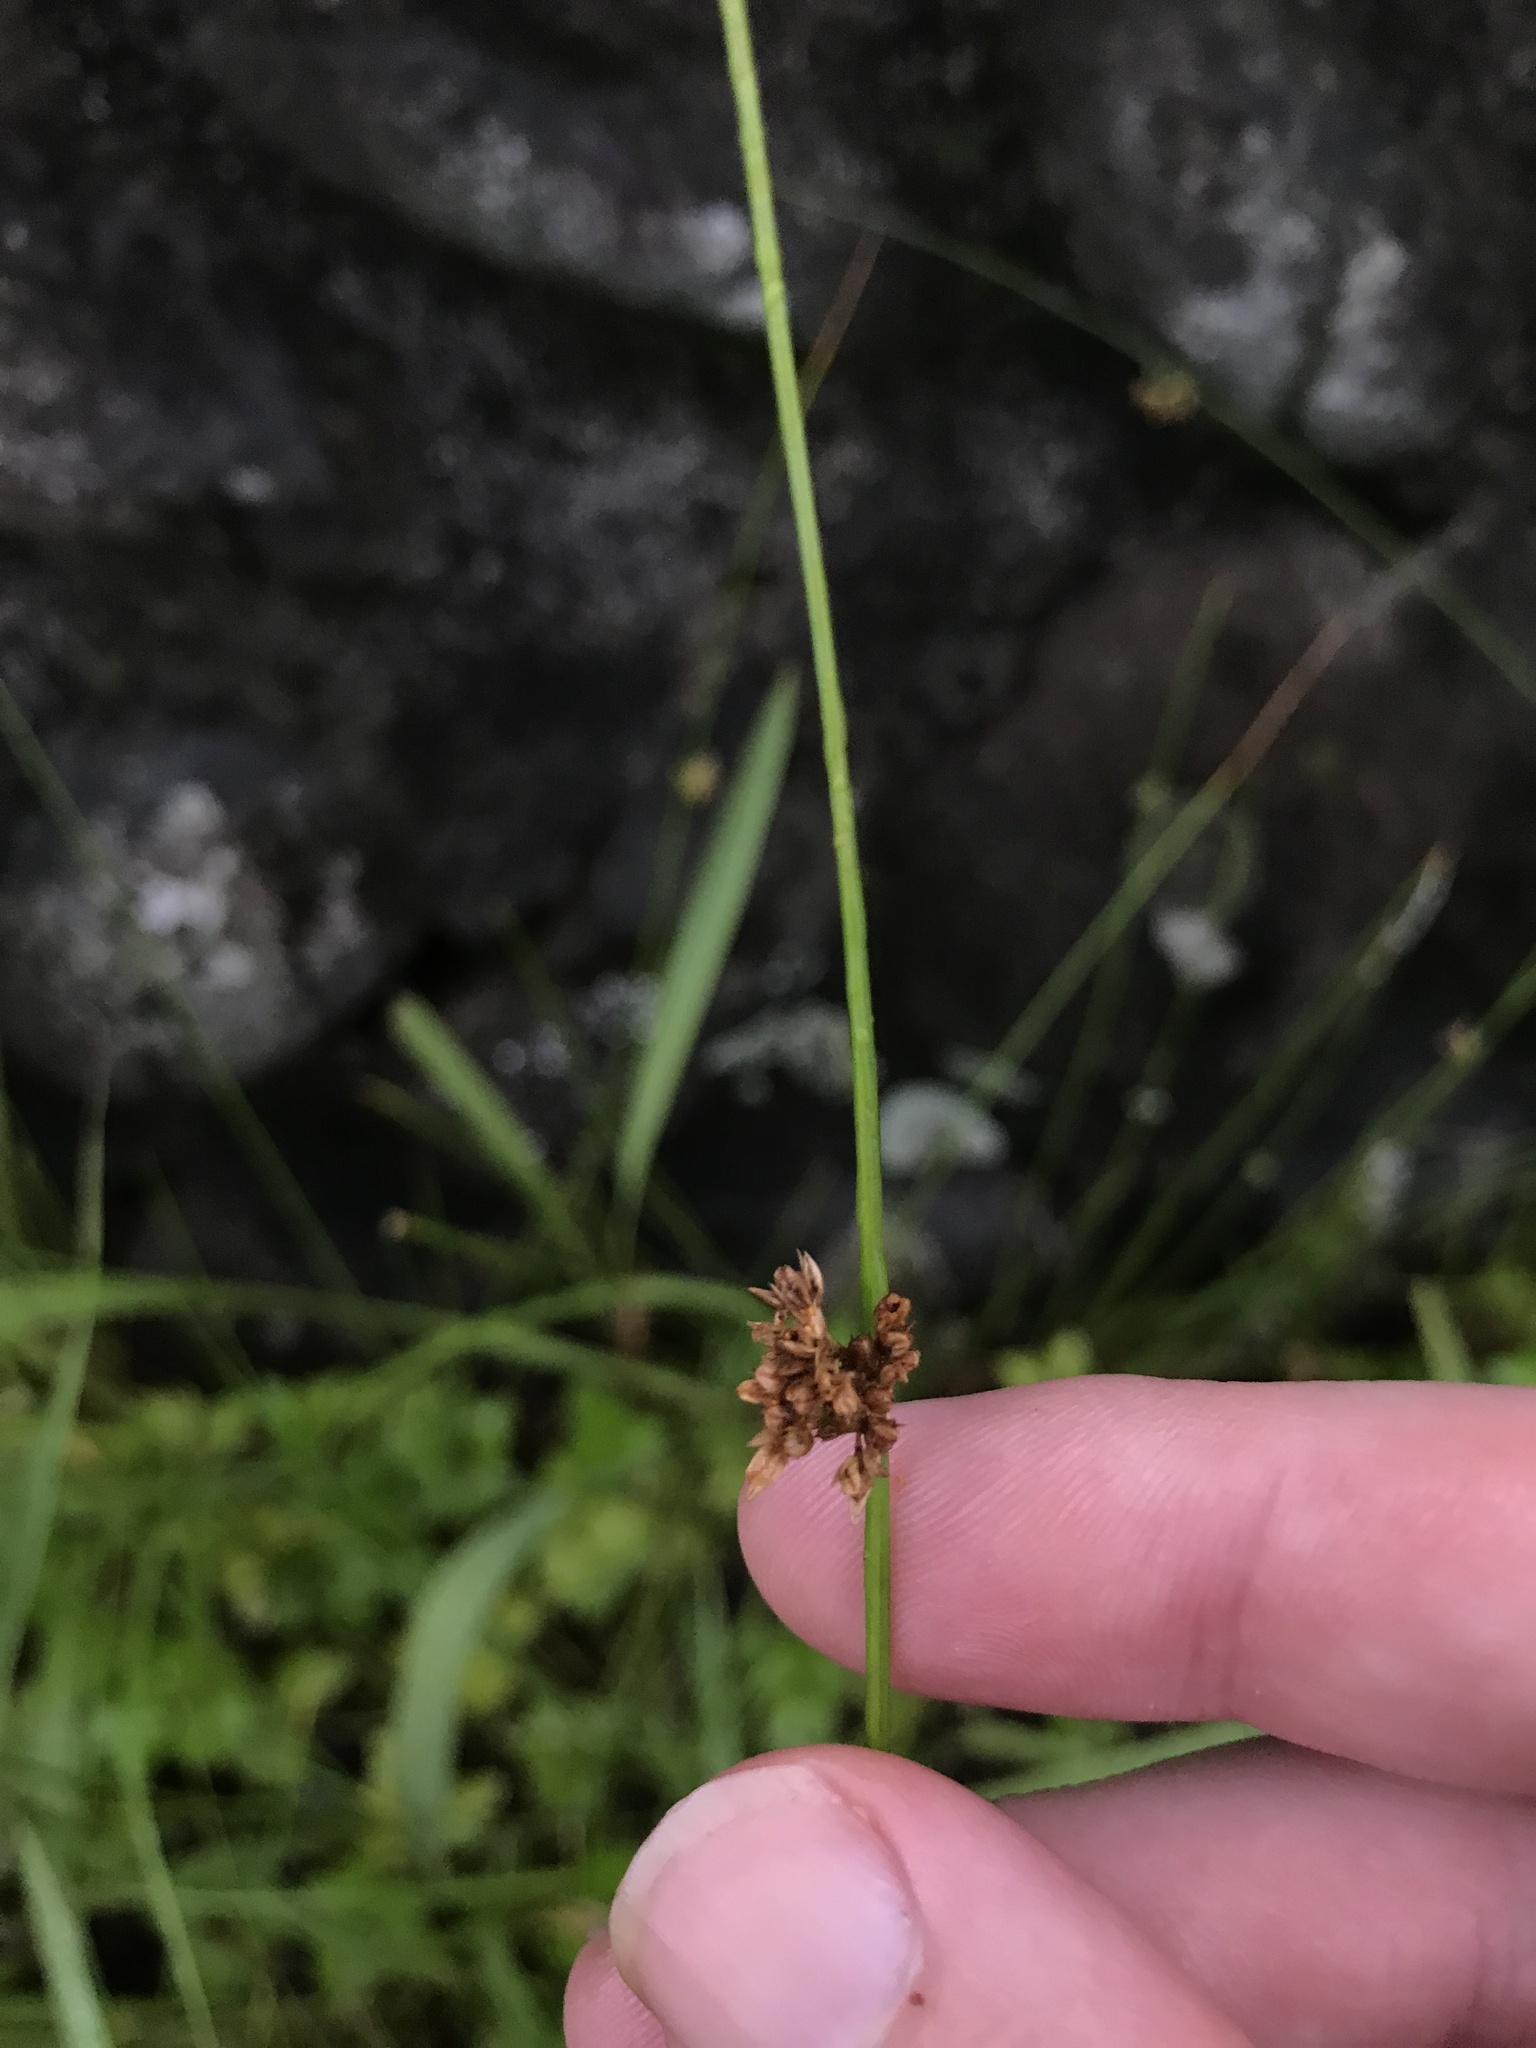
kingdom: Plantae
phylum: Tracheophyta
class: Liliopsida
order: Poales
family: Juncaceae
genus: Juncus
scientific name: Juncus decipiens
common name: Lamp rush
